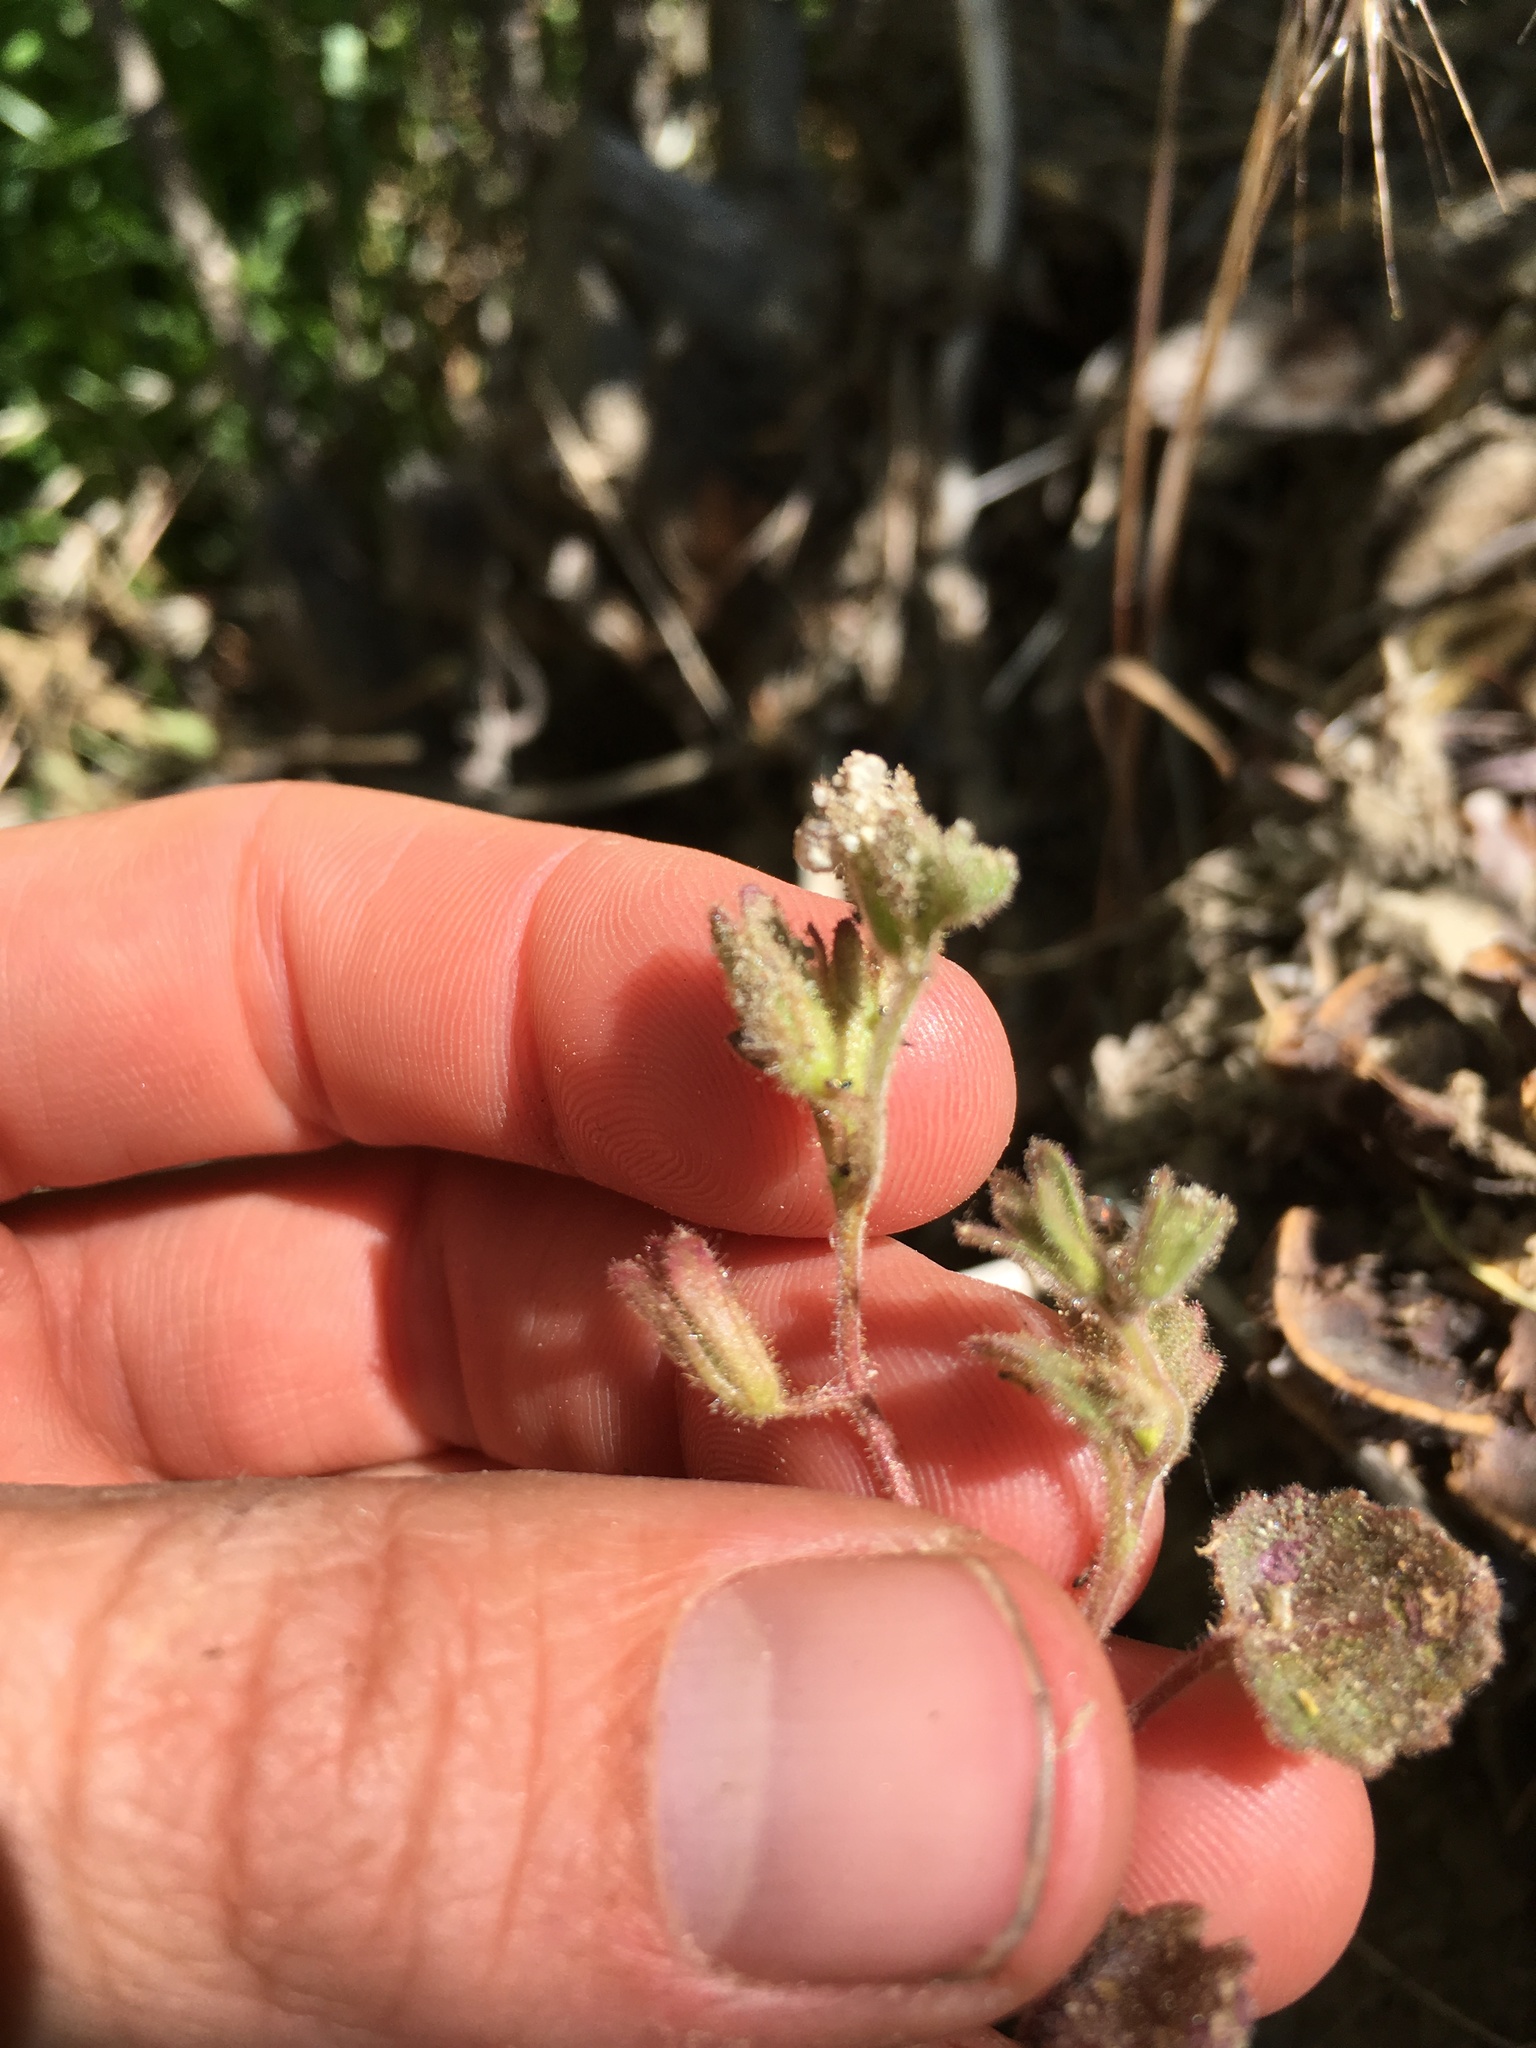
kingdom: Plantae
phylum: Tracheophyta
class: Magnoliopsida
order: Boraginales
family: Hydrophyllaceae
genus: Phacelia
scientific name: Phacelia peirsoniana
